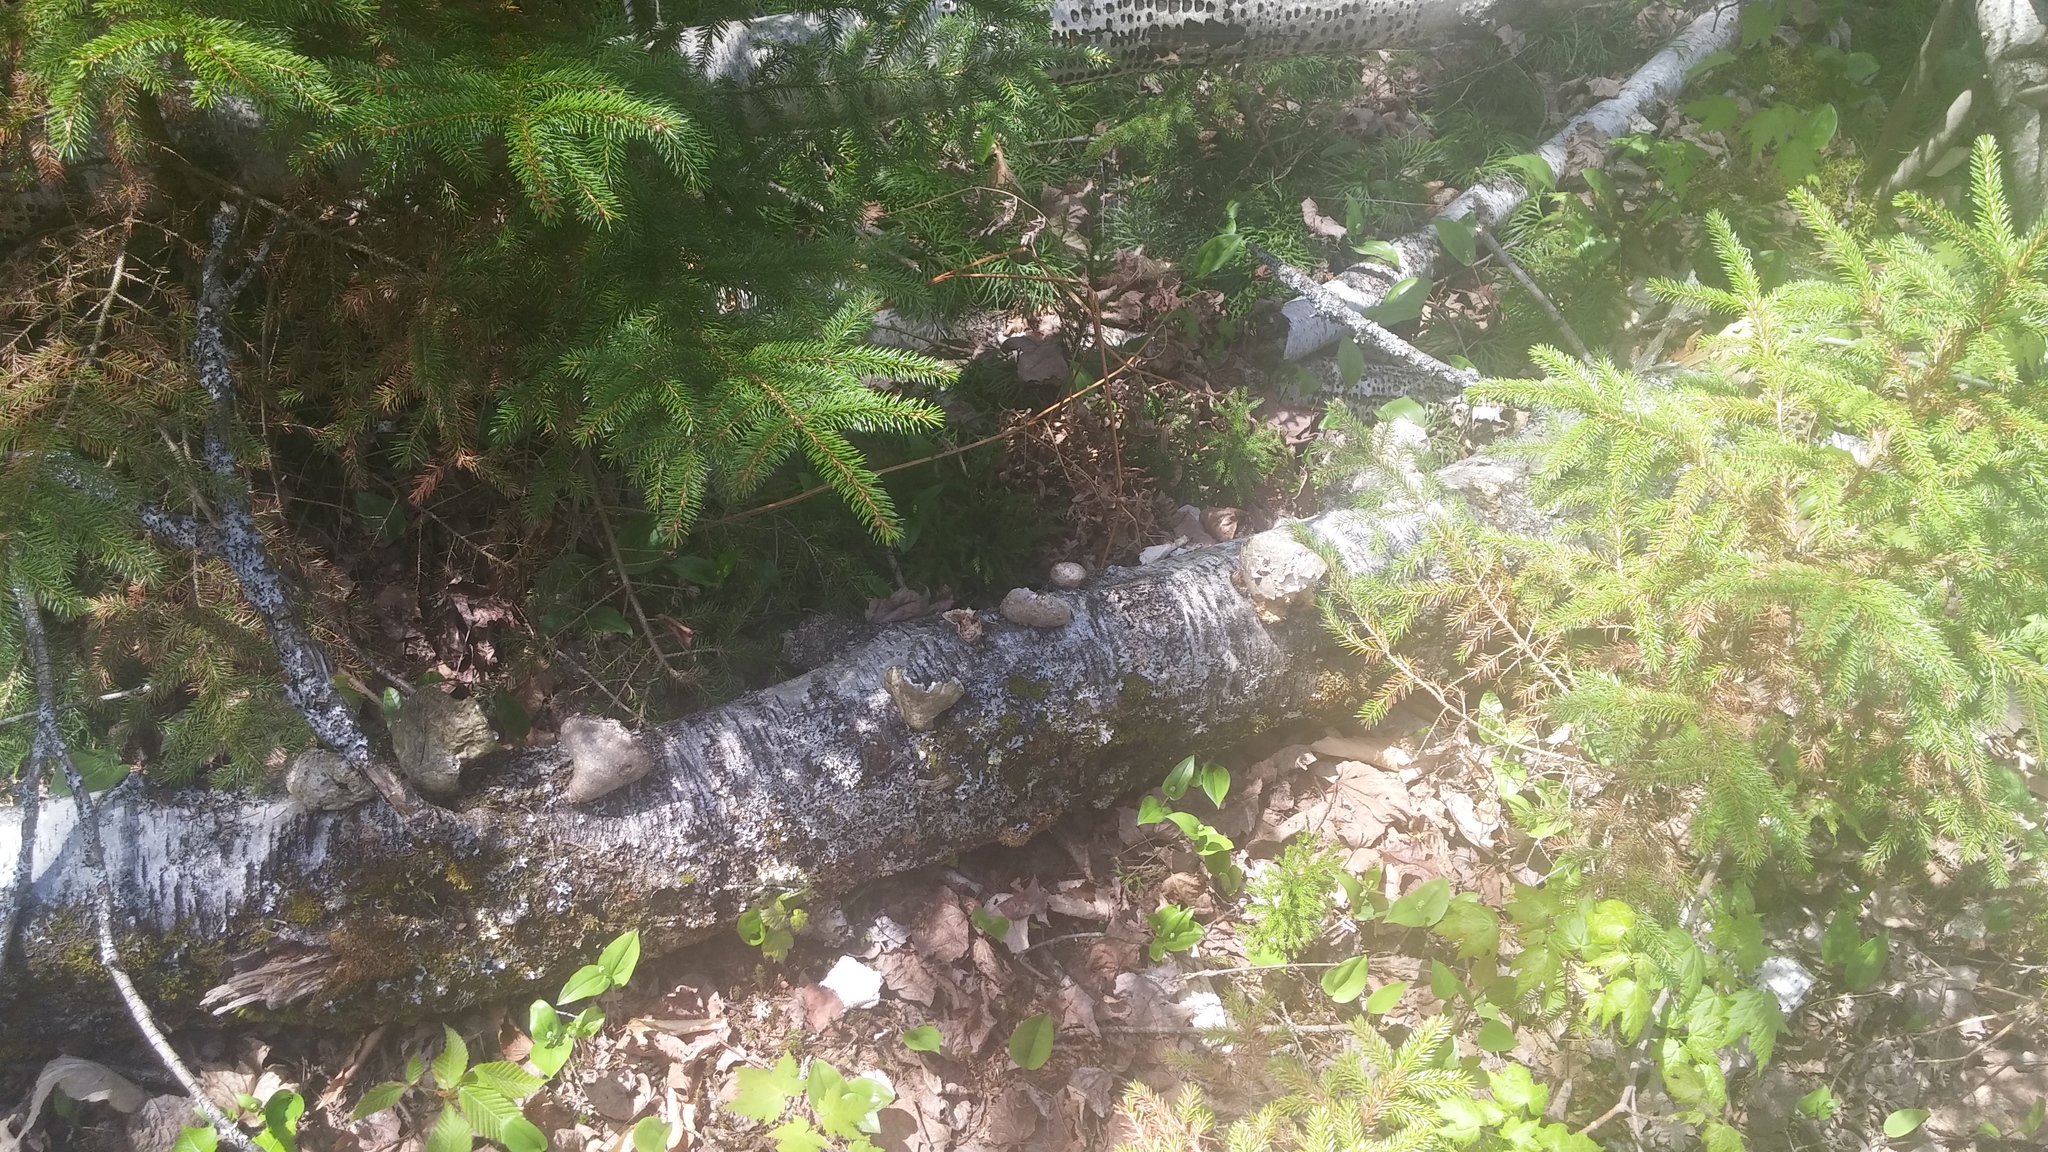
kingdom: Fungi
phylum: Basidiomycota
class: Agaricomycetes
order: Polyporales
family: Fomitopsidaceae
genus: Fomitopsis
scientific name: Fomitopsis betulina
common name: Birch polypore
